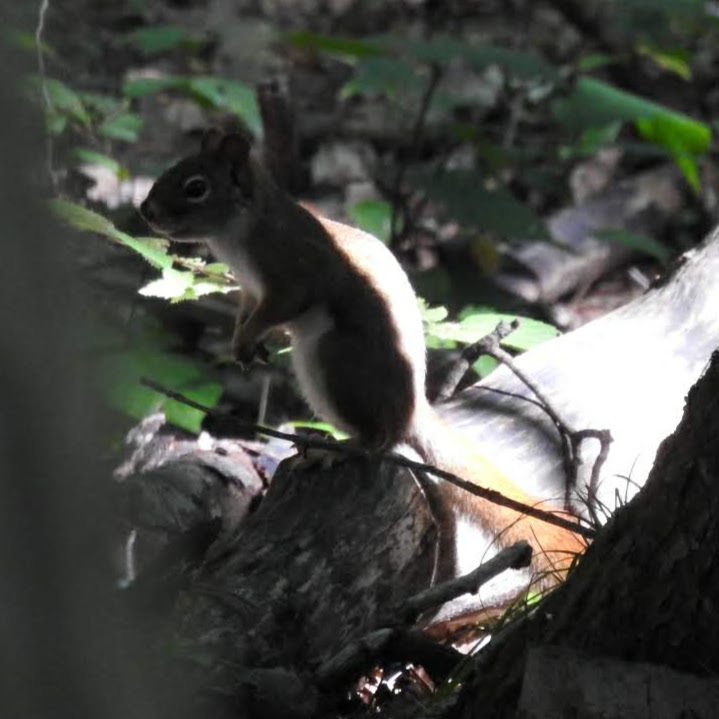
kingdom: Animalia
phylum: Chordata
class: Mammalia
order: Rodentia
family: Sciuridae
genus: Tamiasciurus
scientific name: Tamiasciurus hudsonicus
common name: Red squirrel
